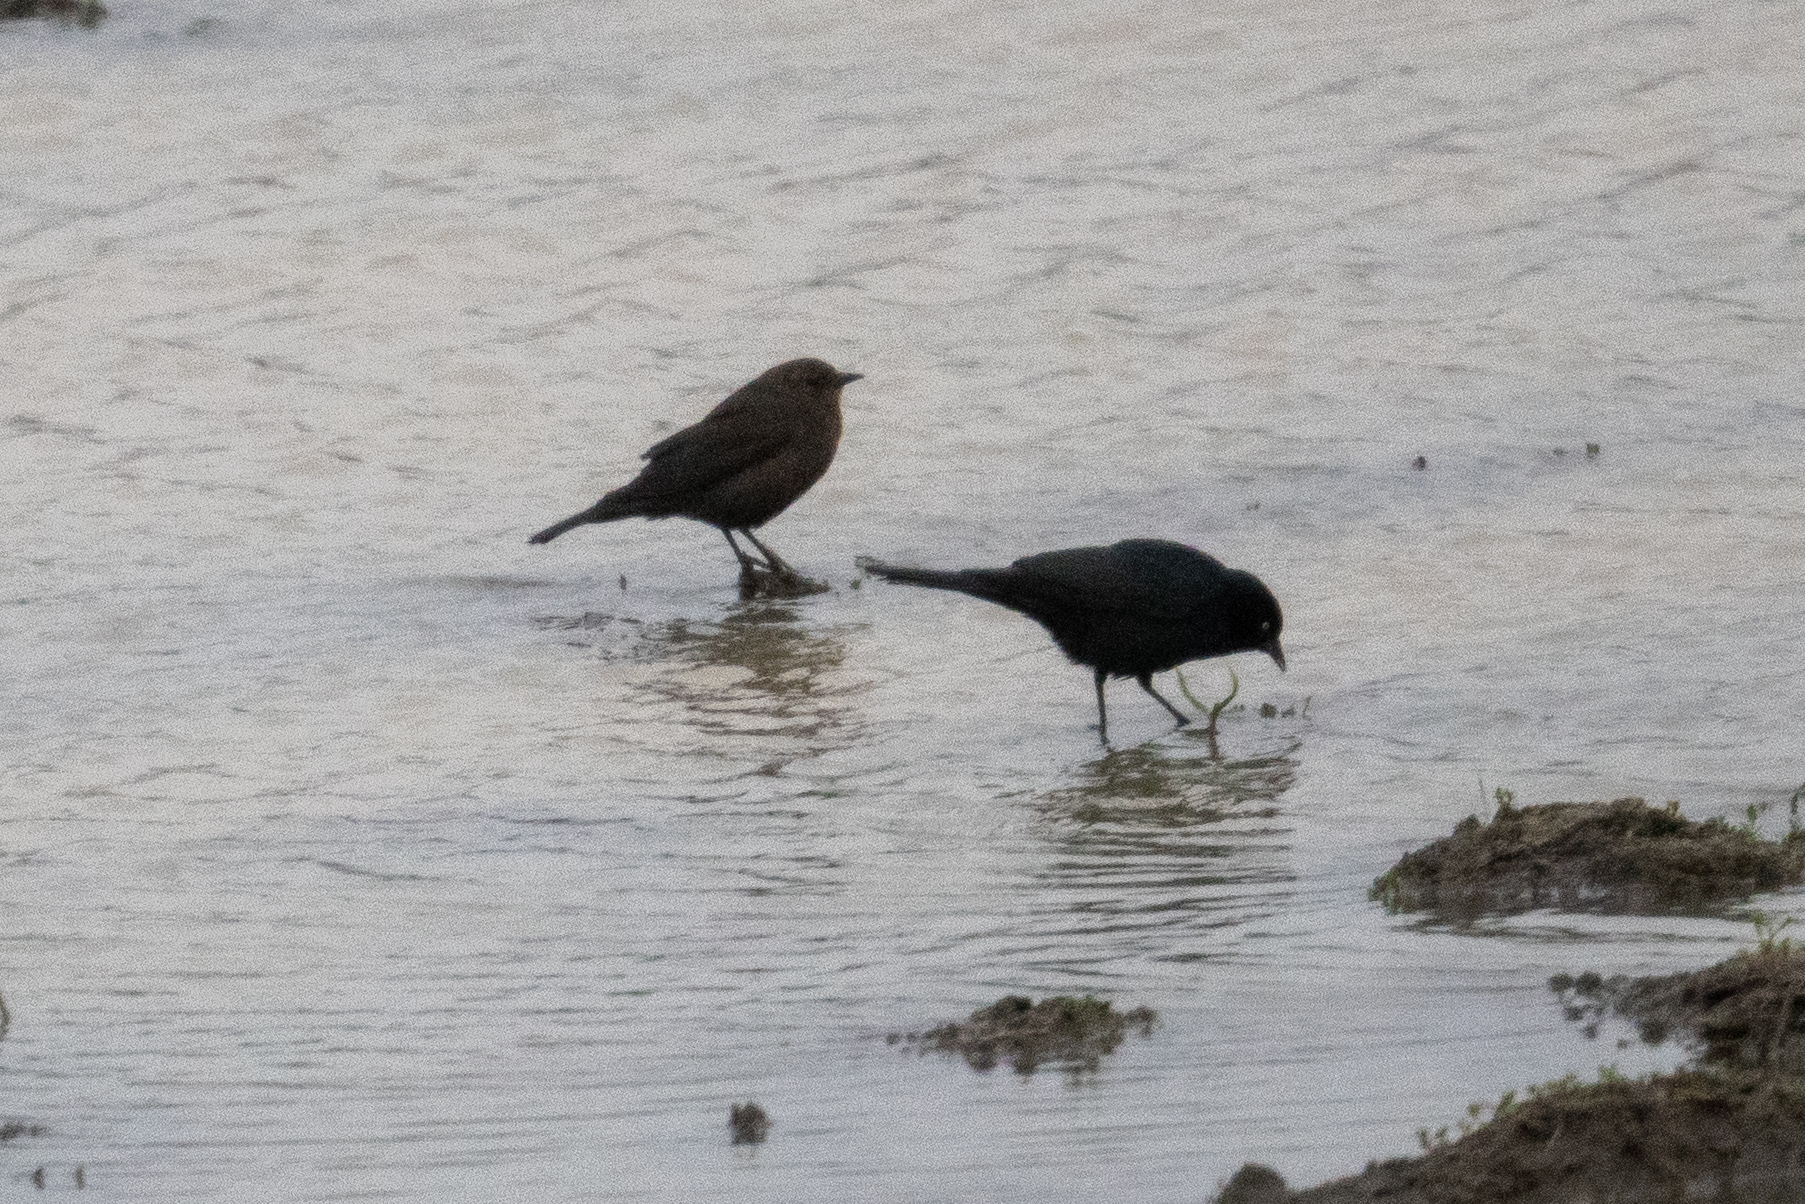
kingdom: Animalia
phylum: Chordata
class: Aves
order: Passeriformes
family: Icteridae
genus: Euphagus
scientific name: Euphagus cyanocephalus
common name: Brewer's blackbird
